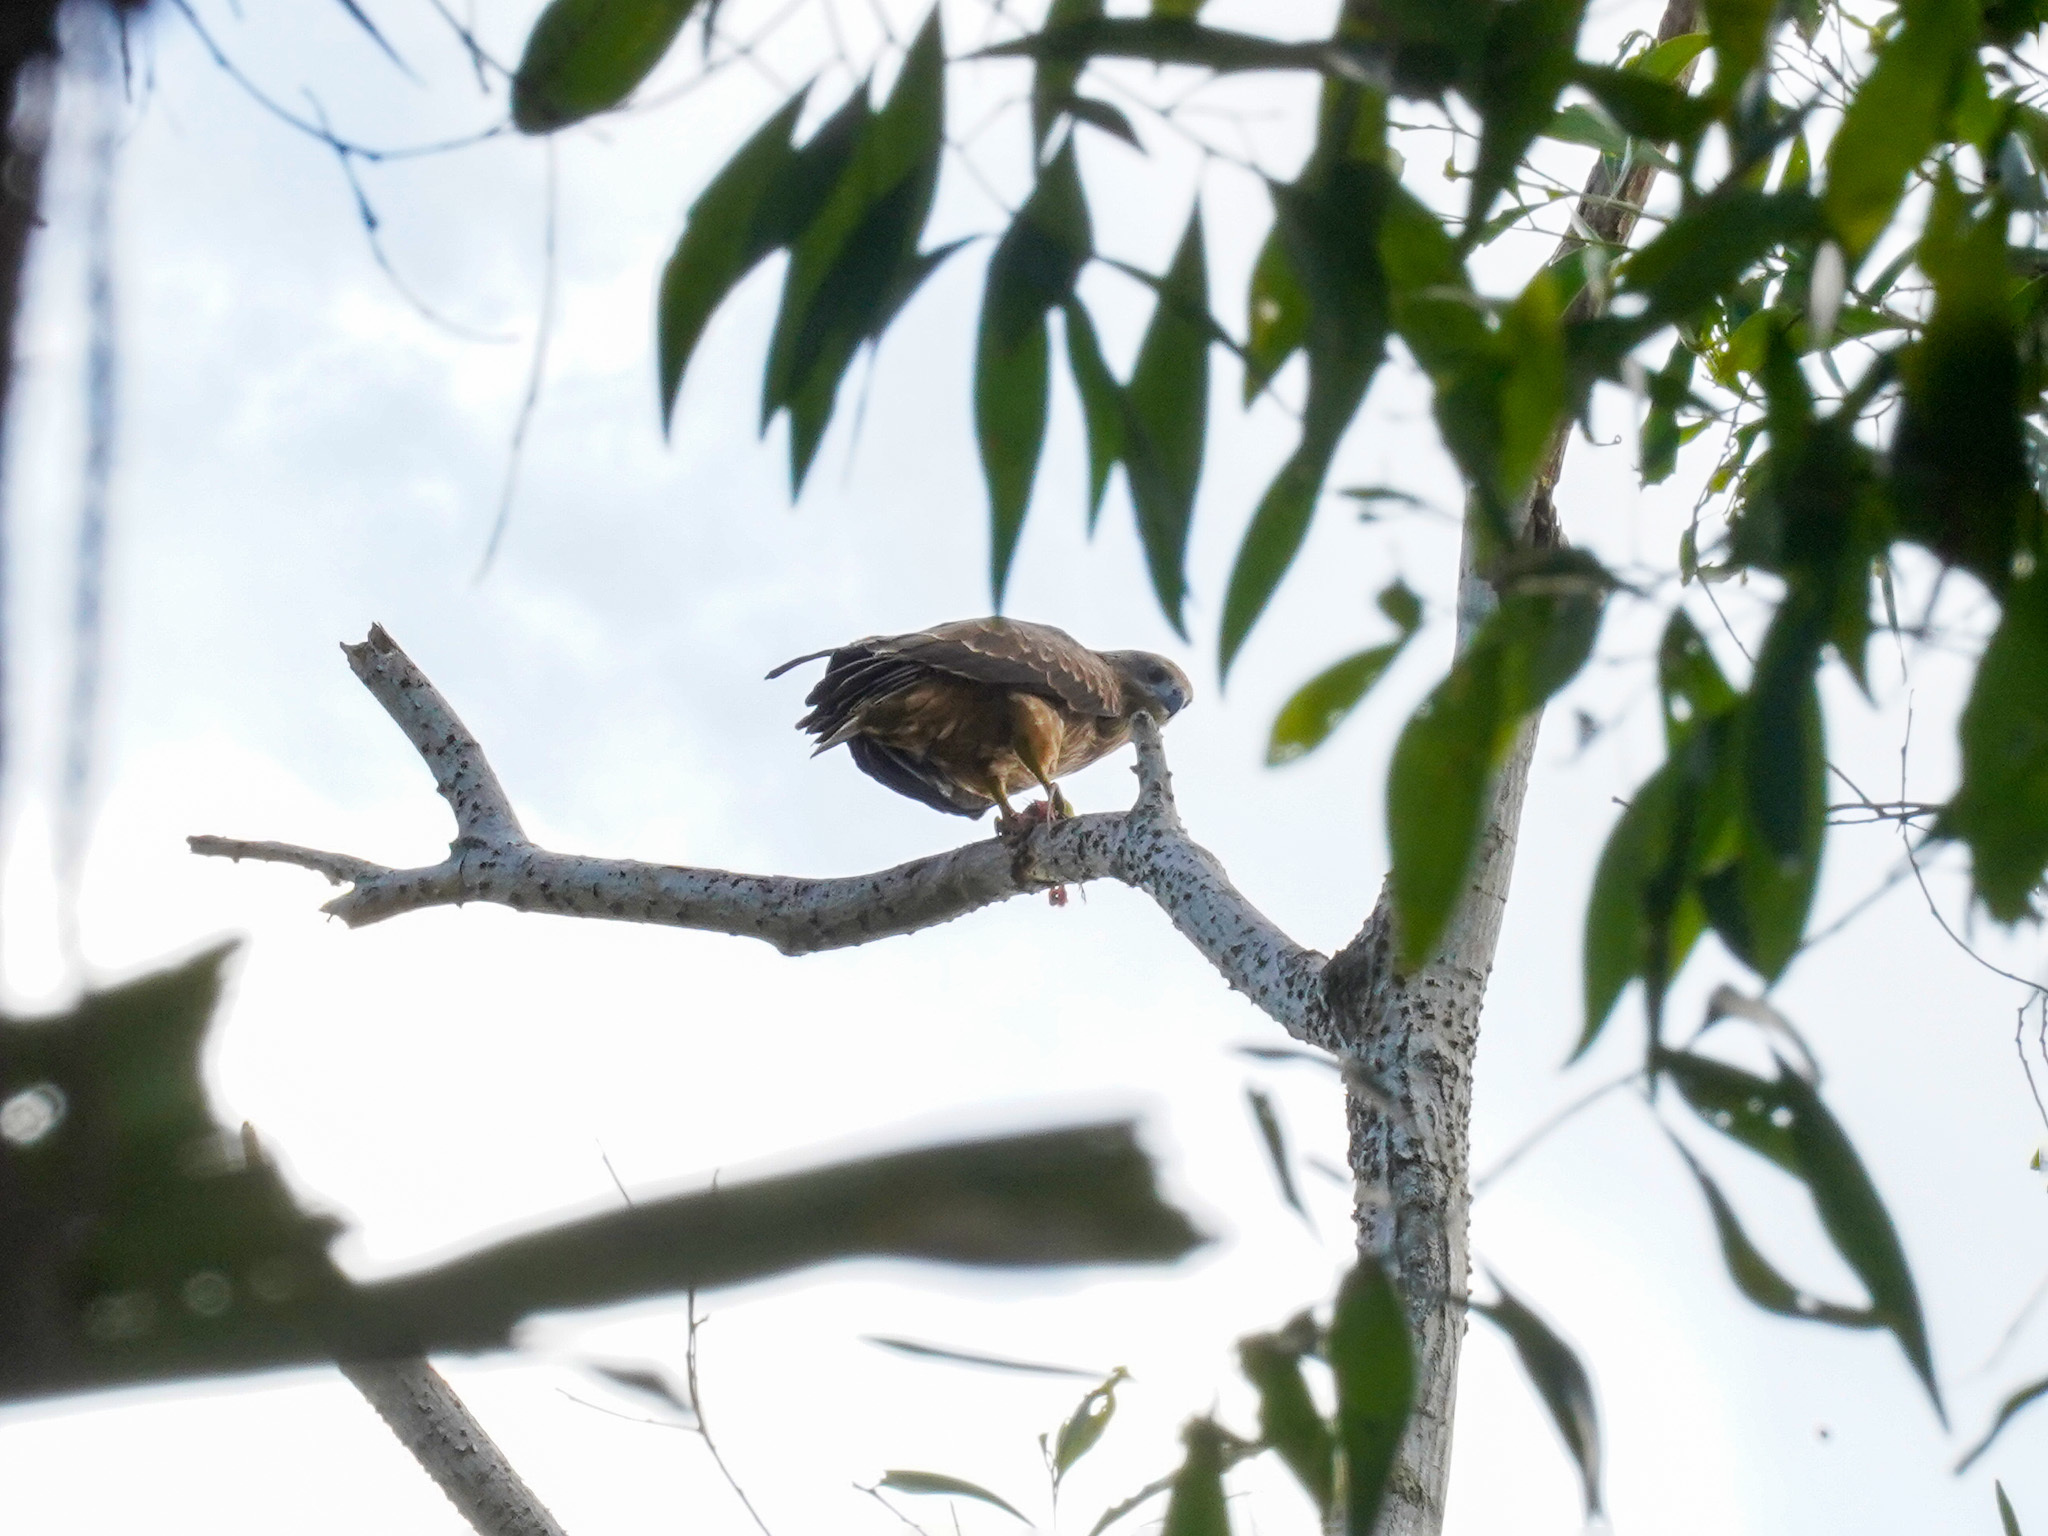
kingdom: Animalia
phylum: Chordata
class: Aves
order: Accipitriformes
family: Accipitridae
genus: Haliastur
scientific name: Haliastur indus
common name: Brahminy kite
